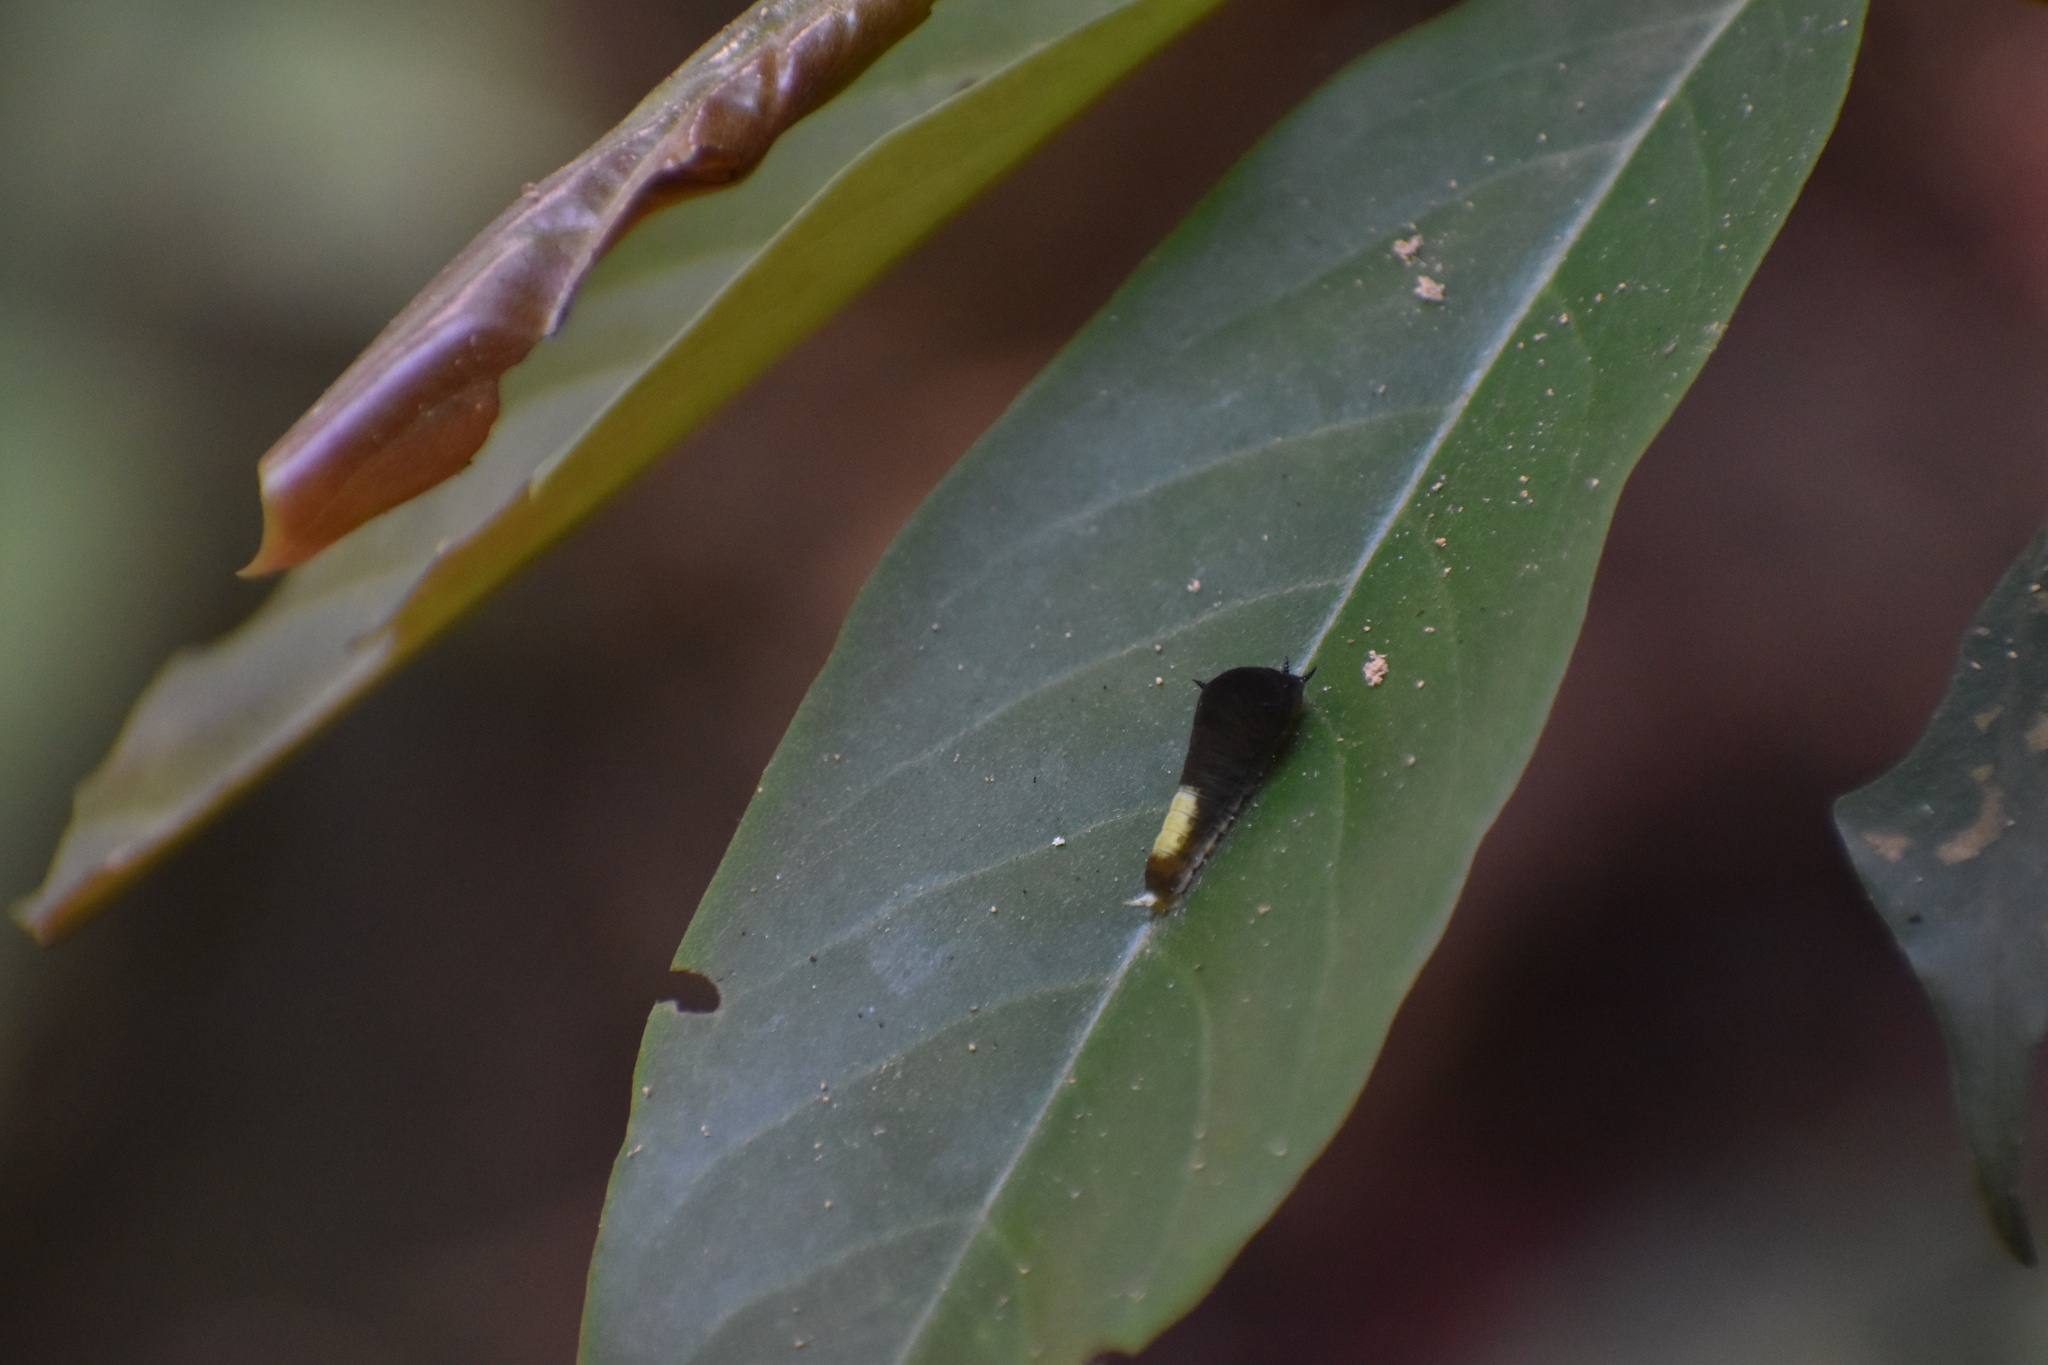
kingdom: Animalia
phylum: Arthropoda
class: Insecta
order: Lepidoptera
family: Papilionidae
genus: Graphium
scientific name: Graphium agamemnon
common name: Tailed jay
